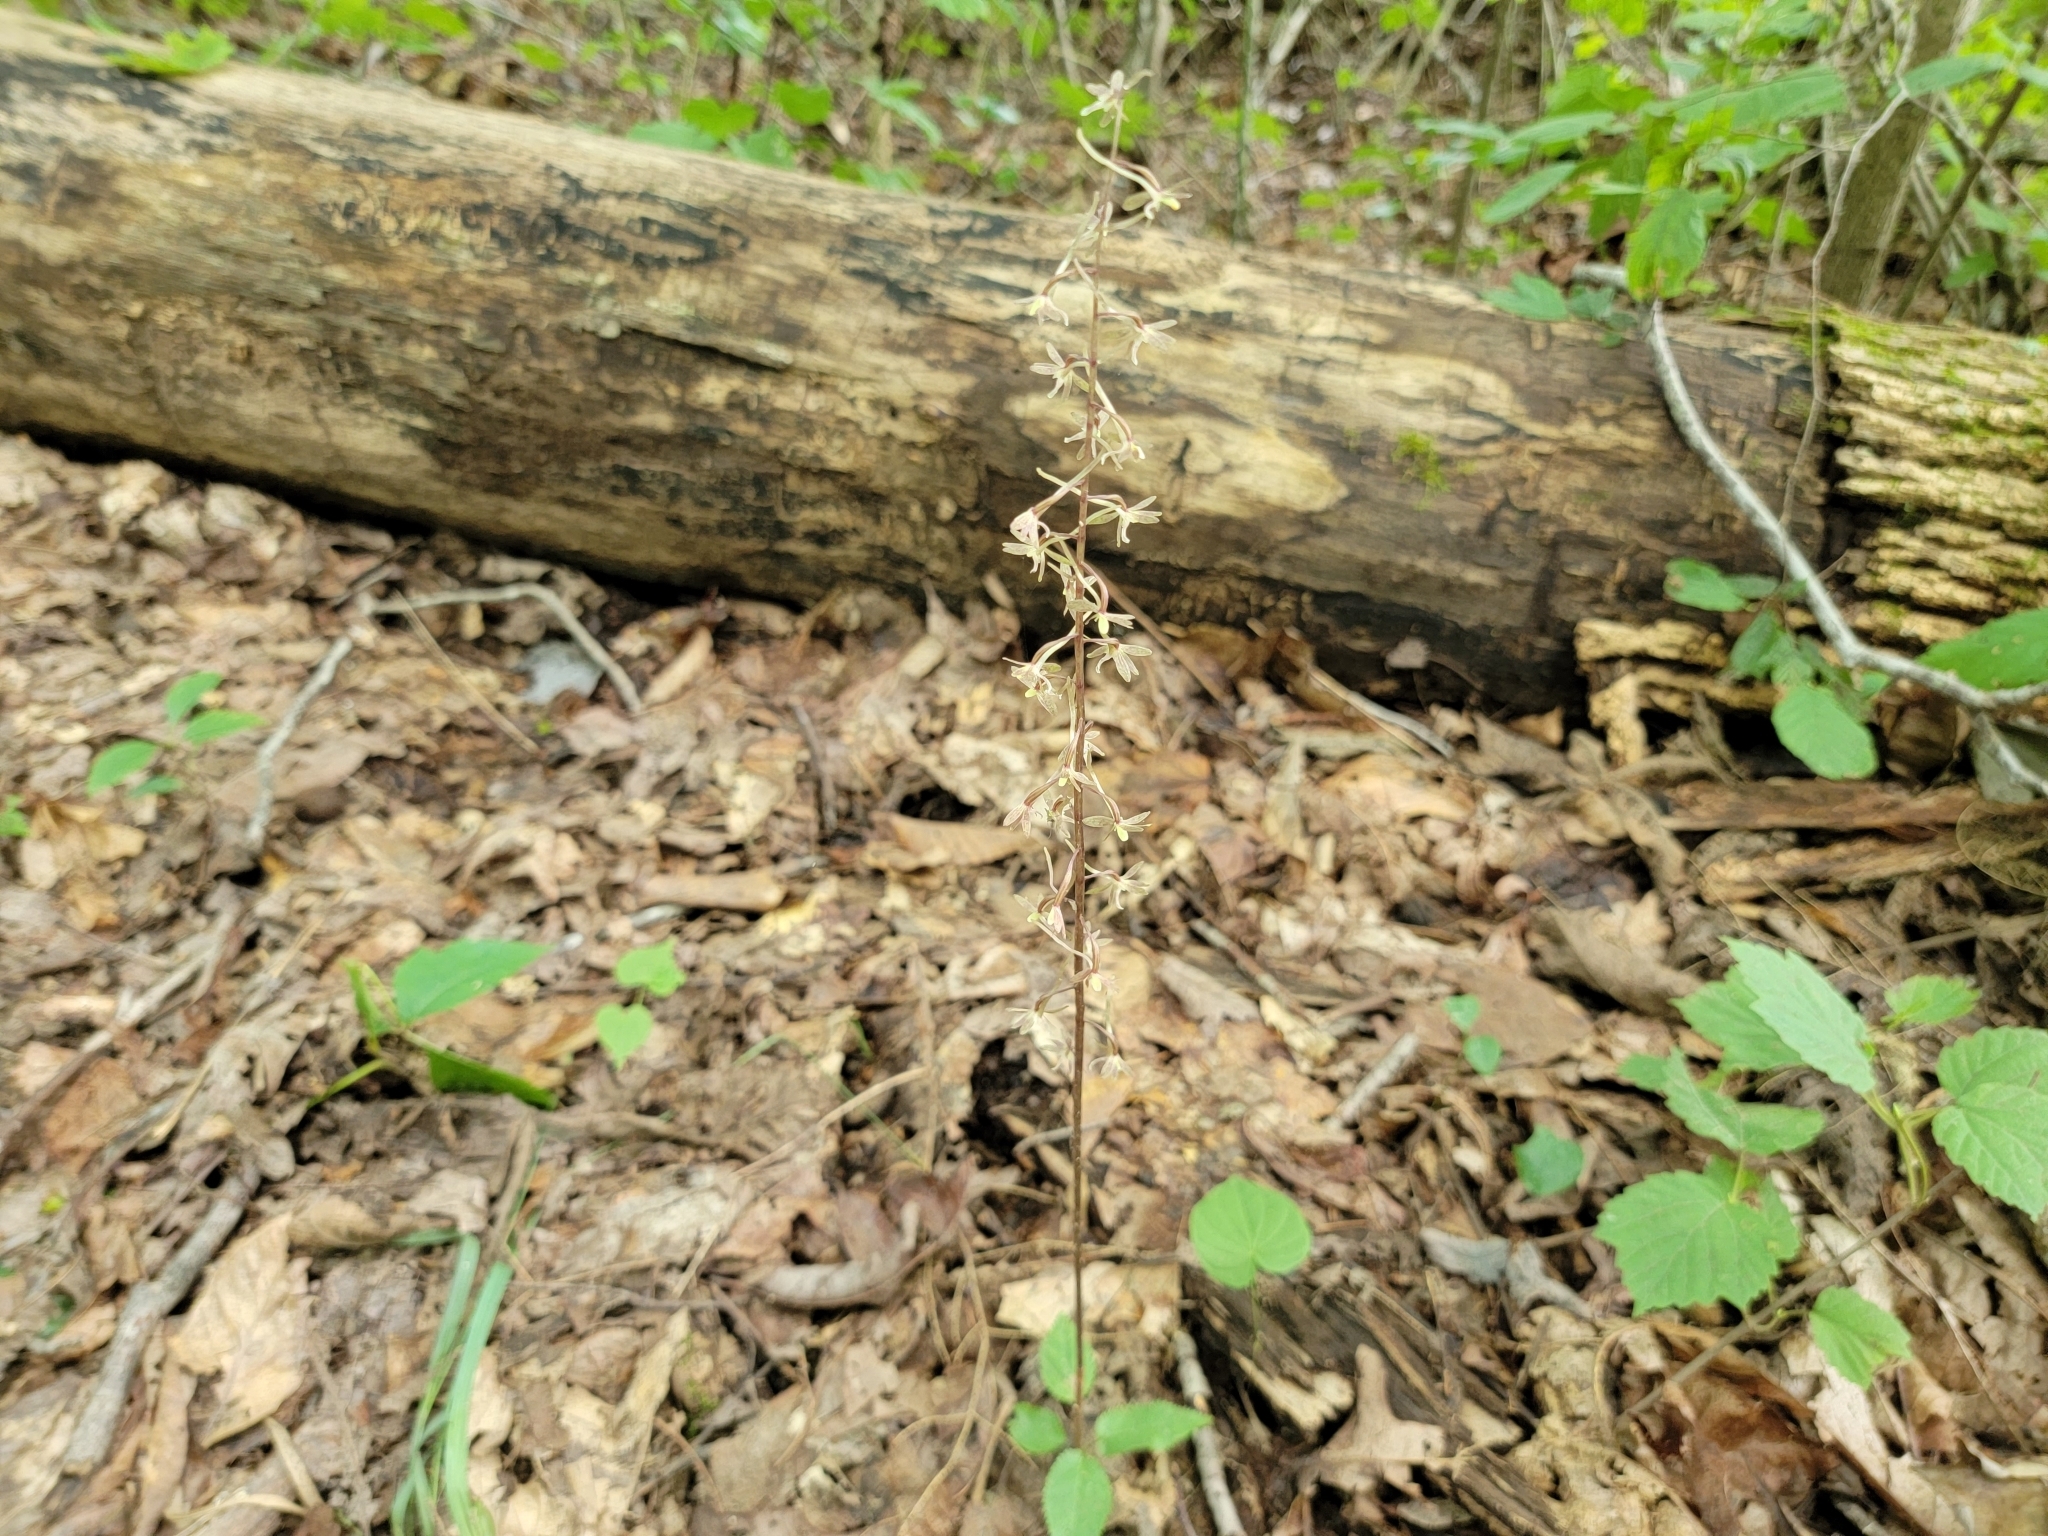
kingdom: Plantae
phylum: Tracheophyta
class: Liliopsida
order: Asparagales
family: Orchidaceae
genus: Tipularia
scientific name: Tipularia discolor
